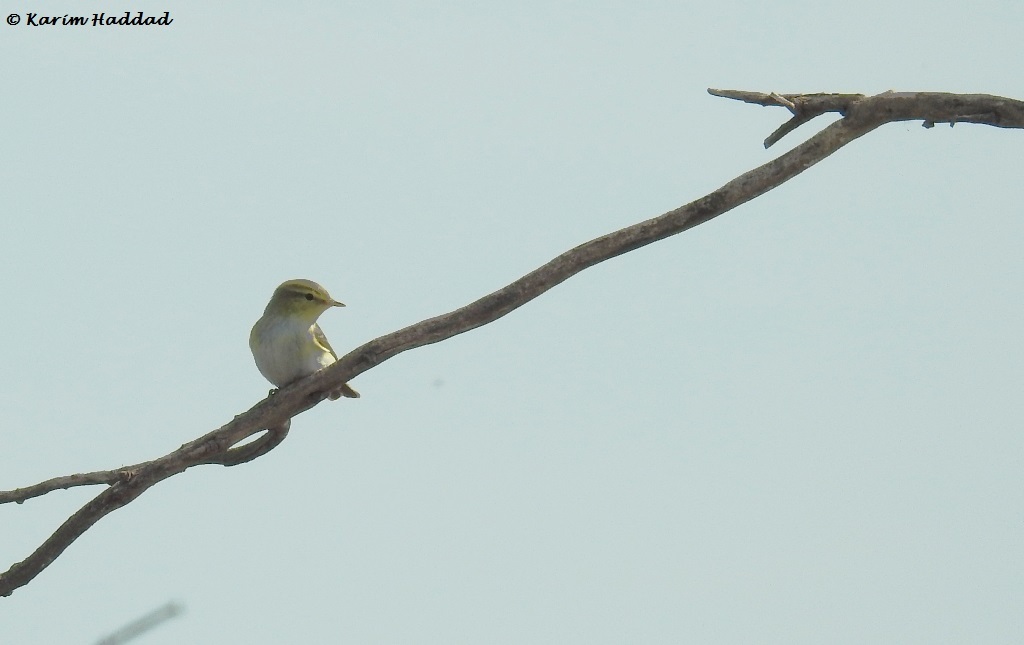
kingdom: Animalia
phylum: Chordata
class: Aves
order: Passeriformes
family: Phylloscopidae
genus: Phylloscopus
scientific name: Phylloscopus sibillatrix
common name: Wood warbler
